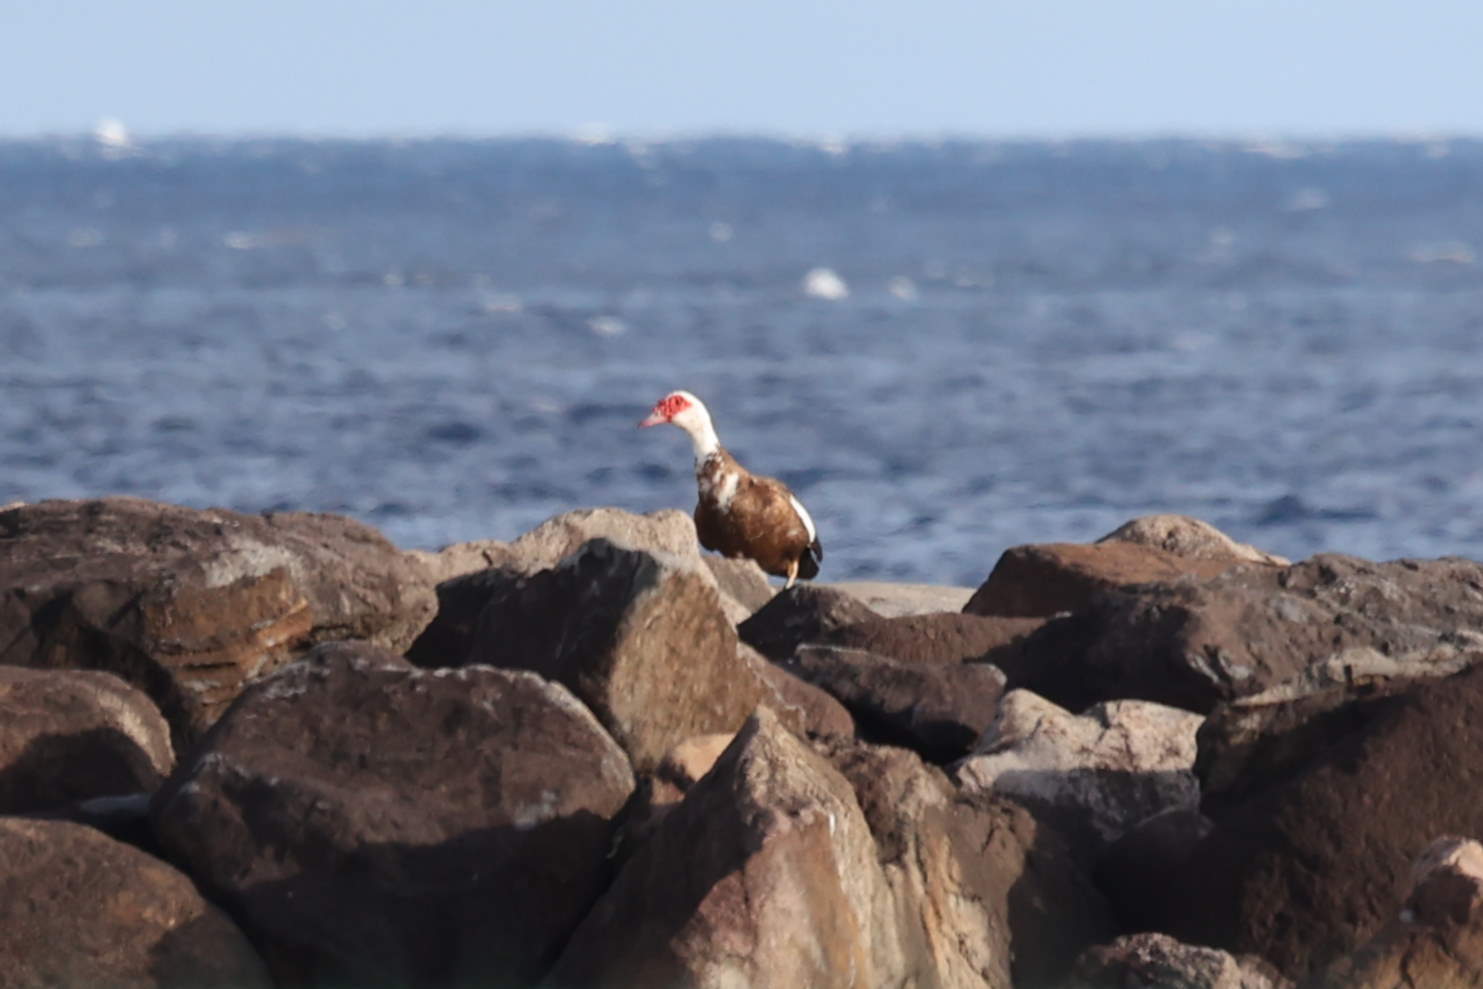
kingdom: Animalia
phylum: Chordata
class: Aves
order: Anseriformes
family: Anatidae
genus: Cairina
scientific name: Cairina moschata
